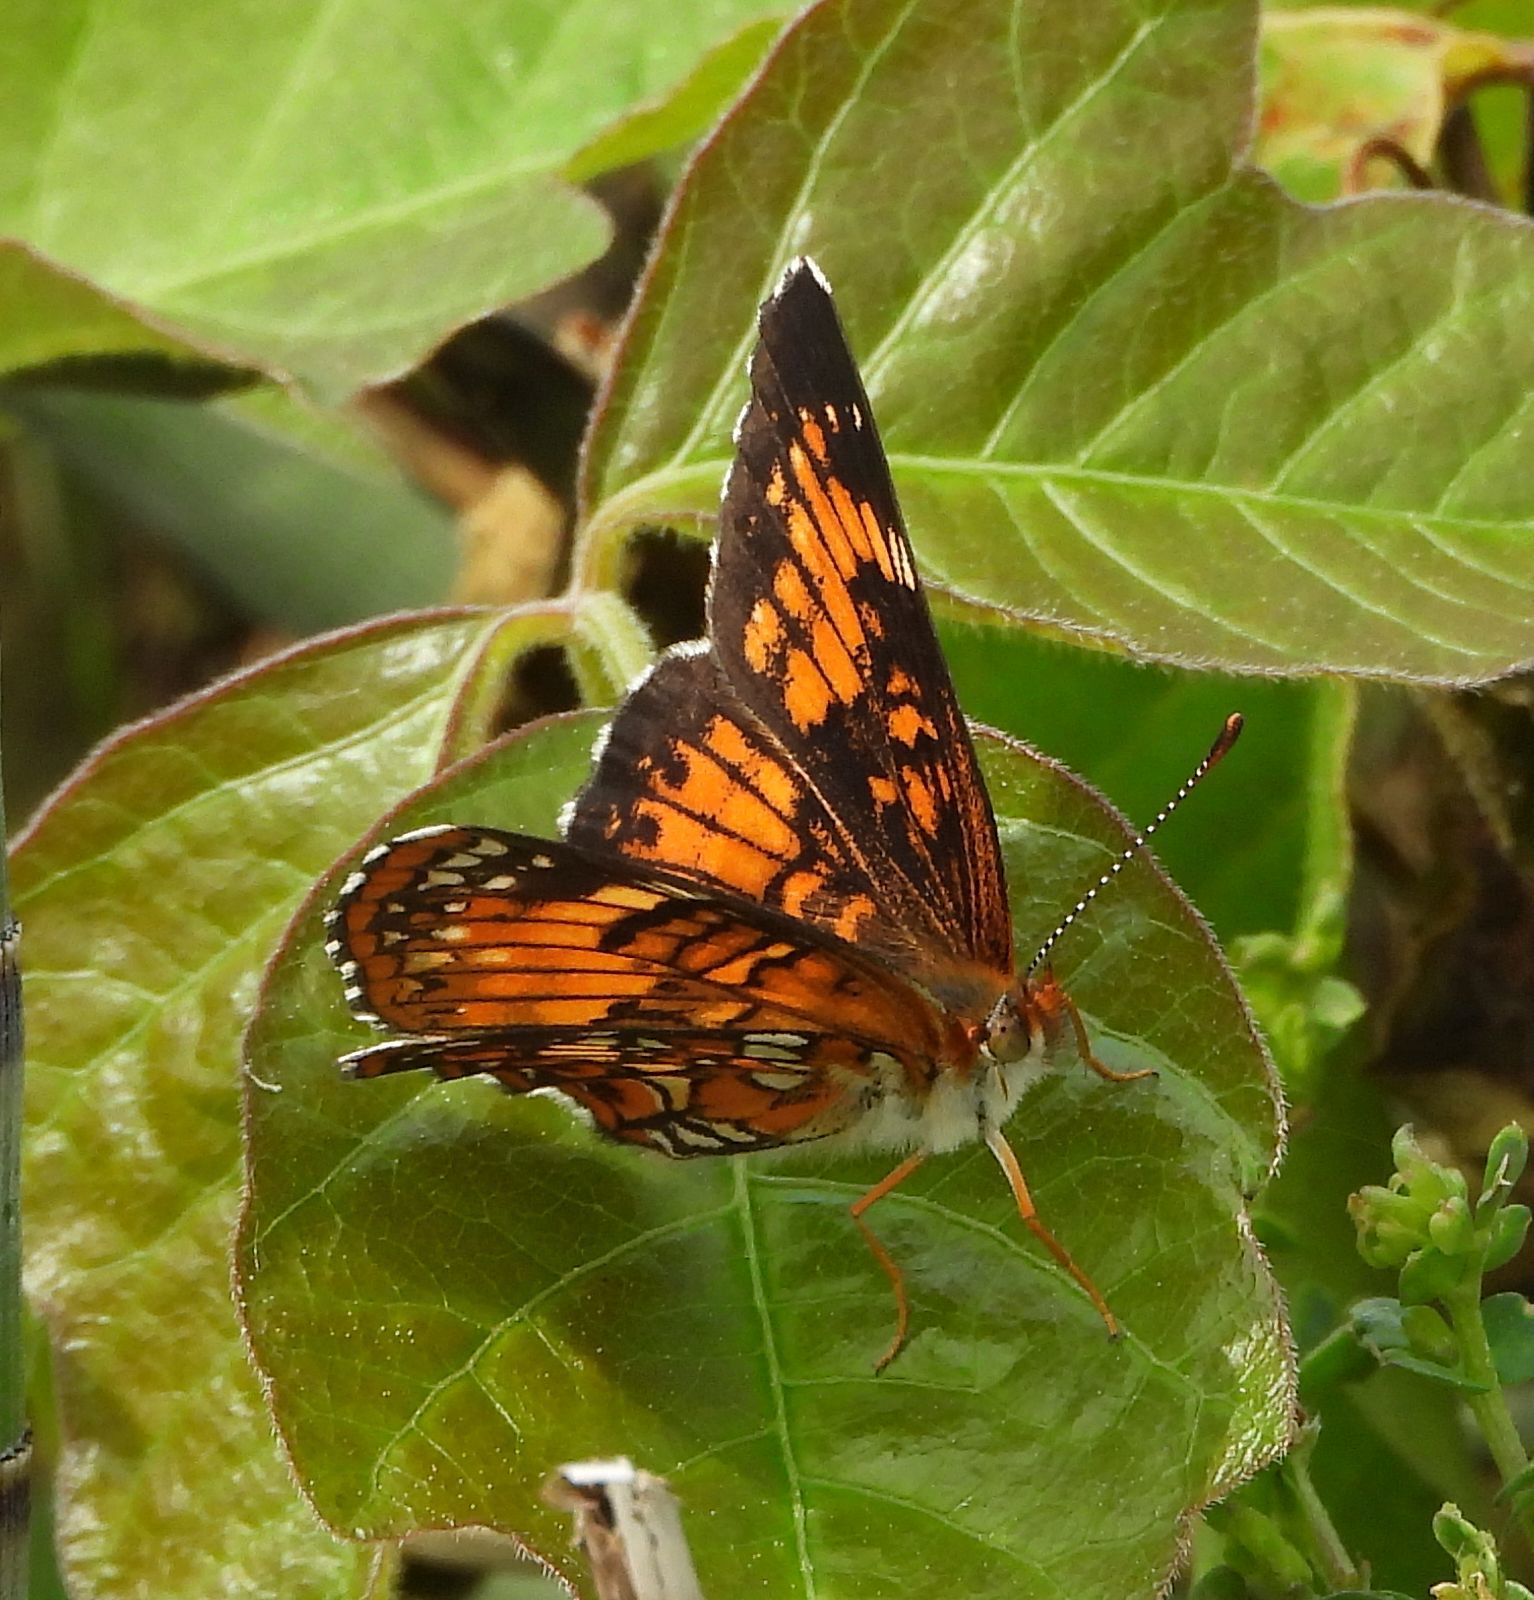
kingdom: Animalia
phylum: Arthropoda
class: Insecta
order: Lepidoptera
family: Nymphalidae
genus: Chlosyne
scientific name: Chlosyne harrisii
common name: Harris's checkerspot
